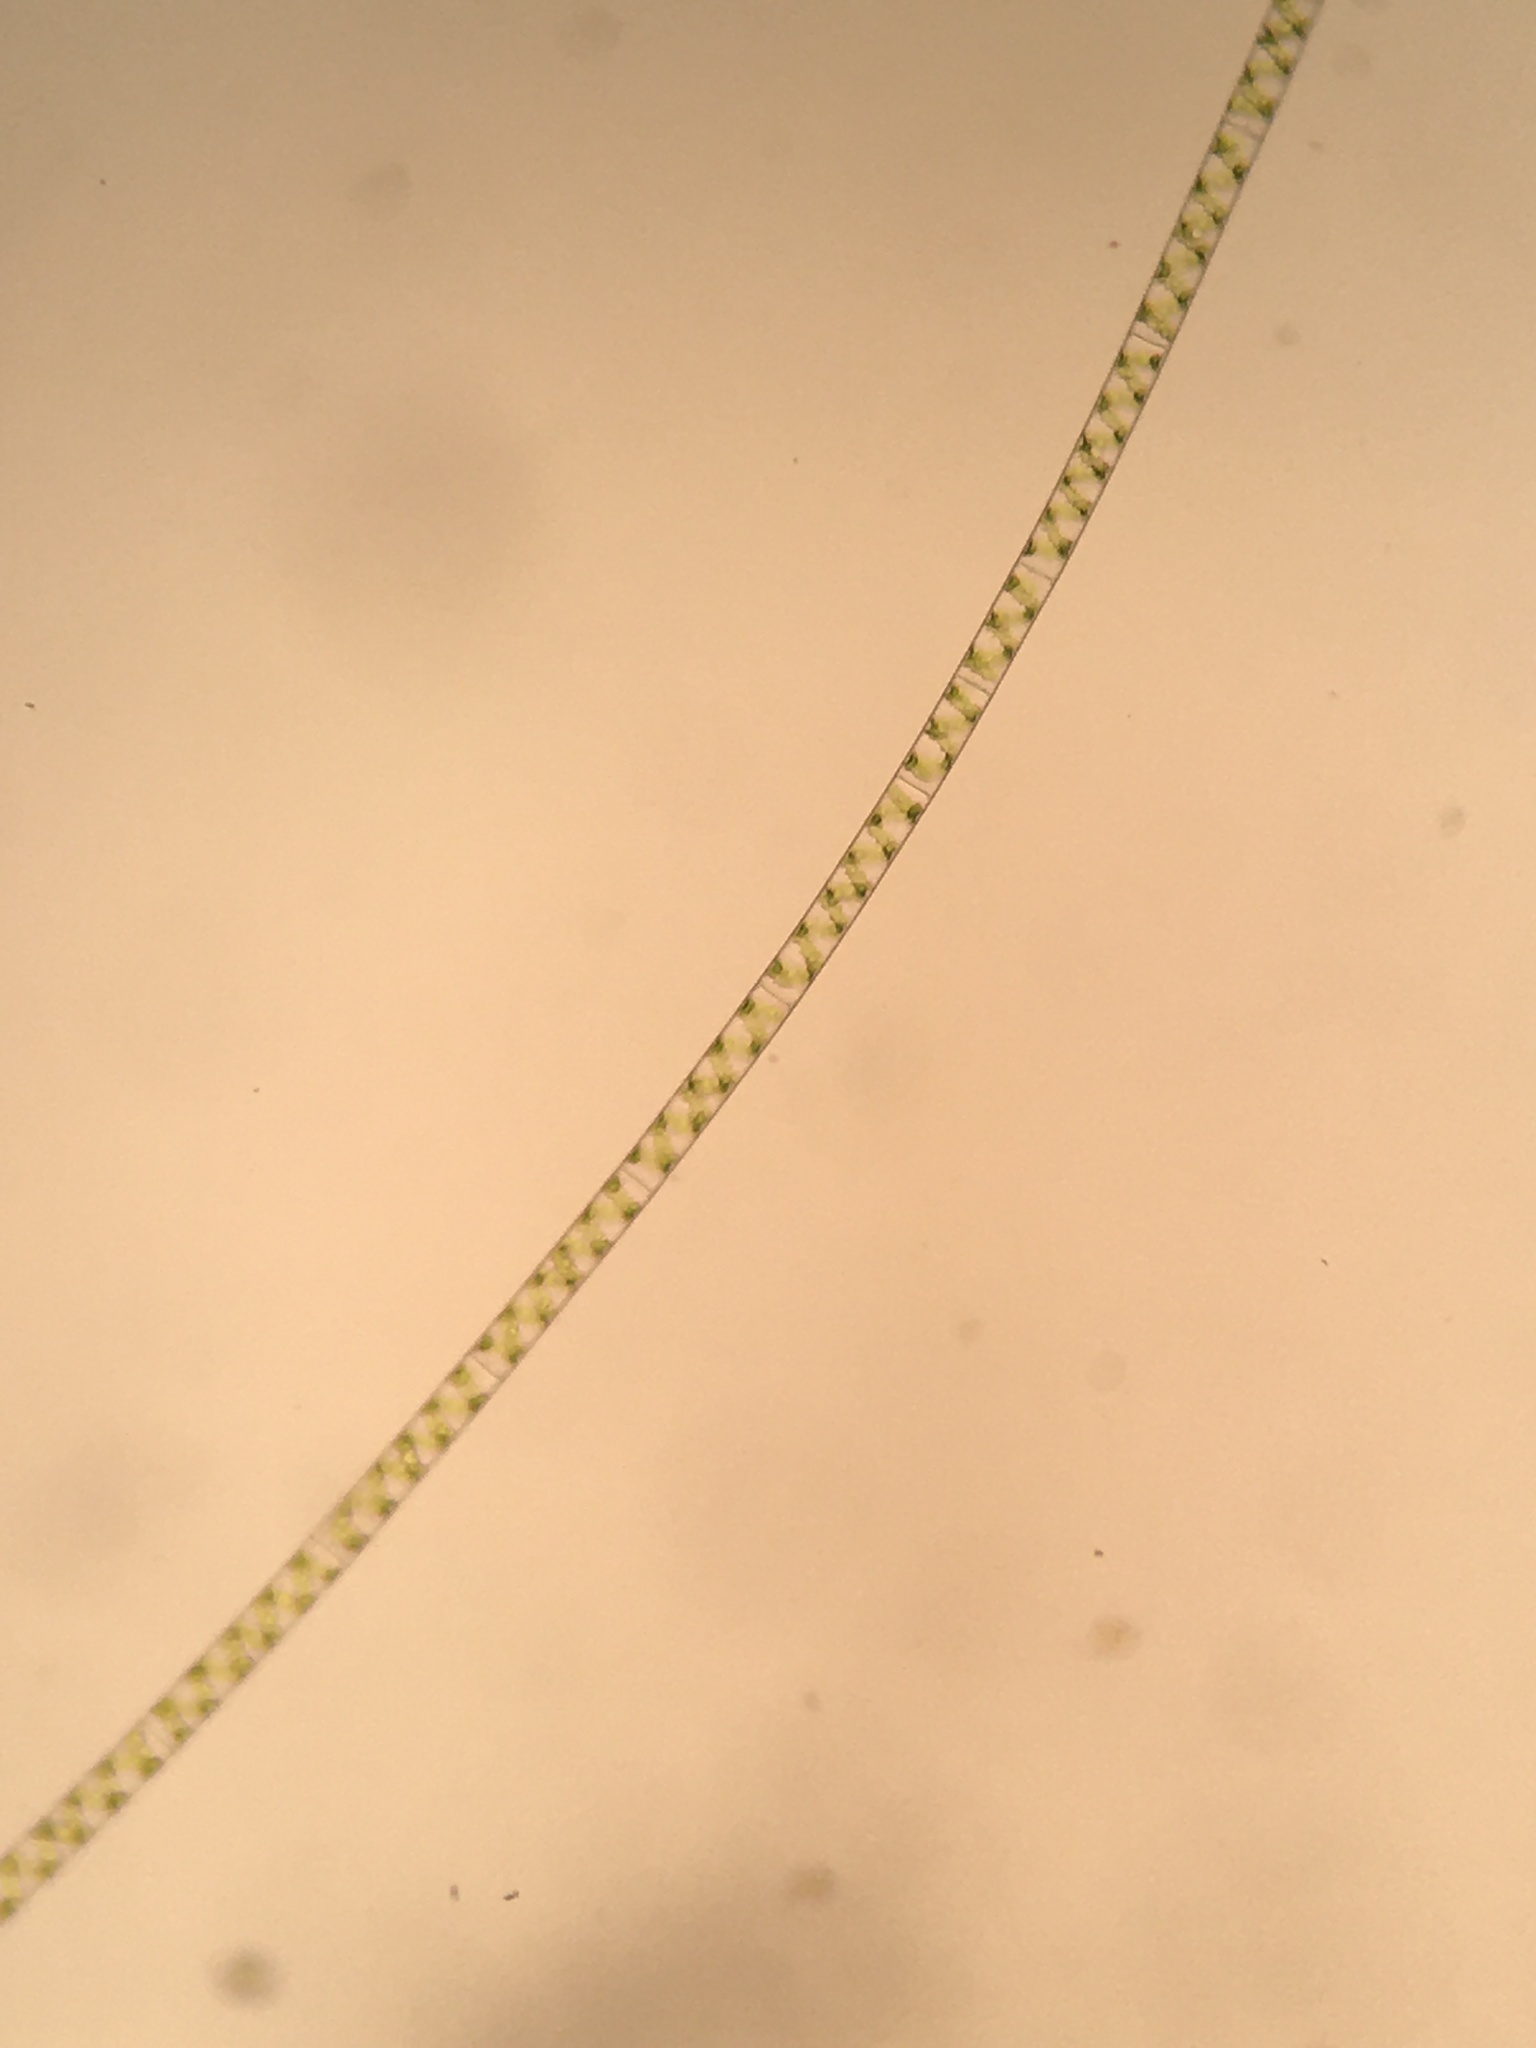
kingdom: Plantae
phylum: Charophyta
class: Zygnematophyceae
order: Zygnematales
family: Zygnemataceae
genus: Spirogyra
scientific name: Spirogyra
